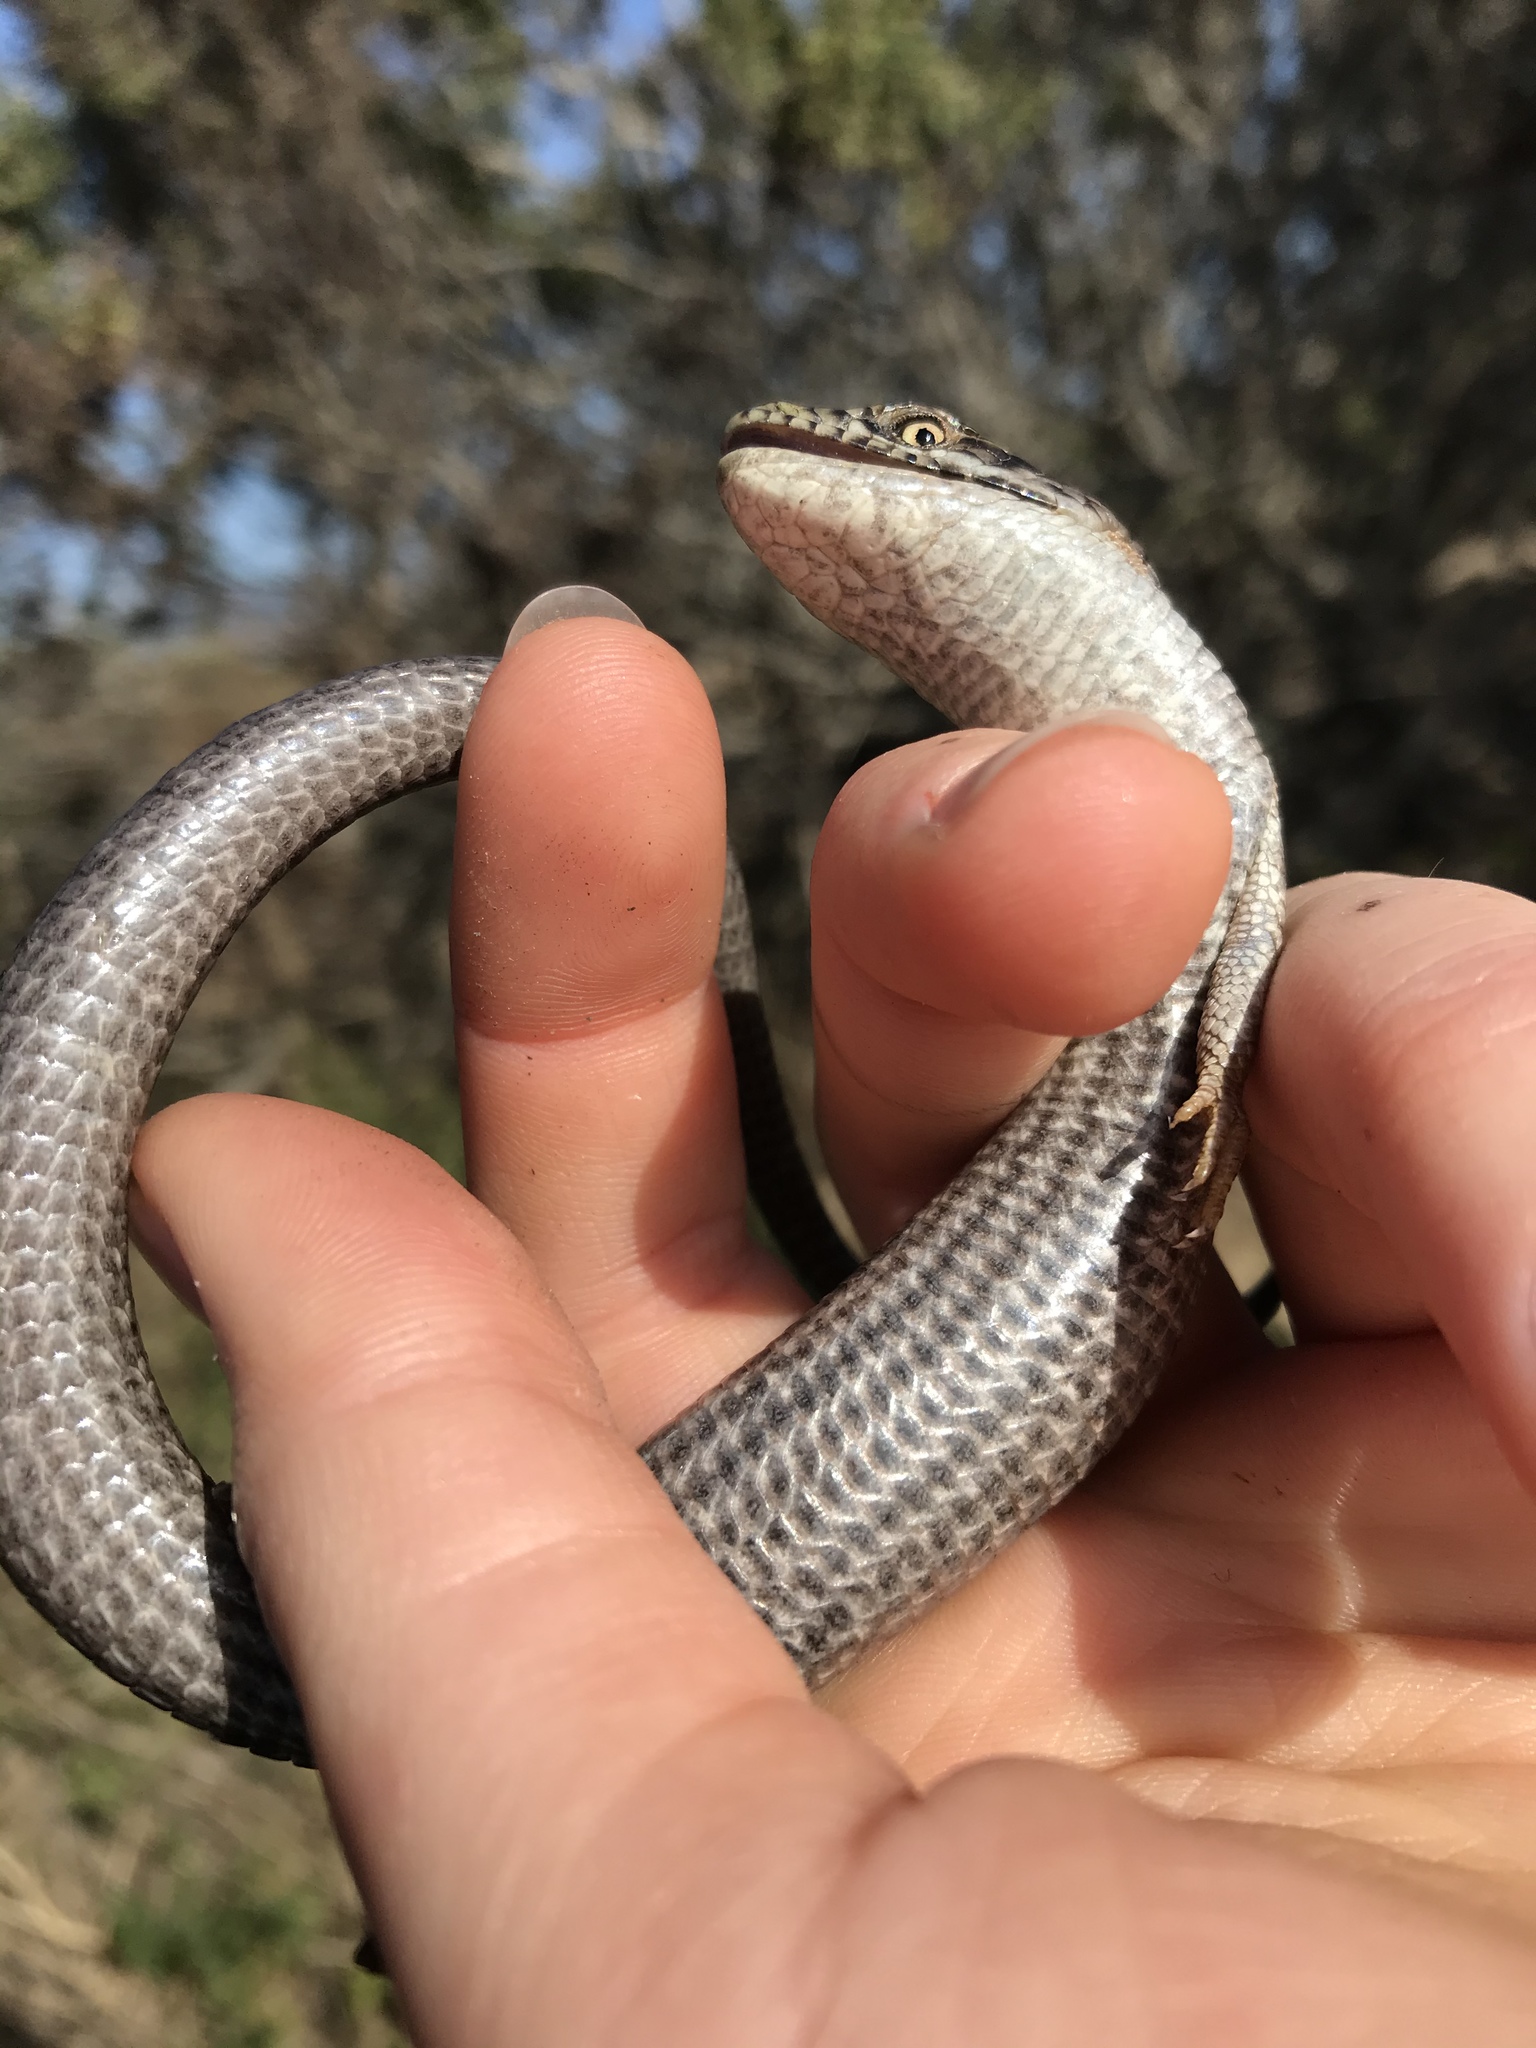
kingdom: Animalia
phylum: Chordata
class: Squamata
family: Anguidae
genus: Elgaria
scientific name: Elgaria multicarinata
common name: Southern alligator lizard
